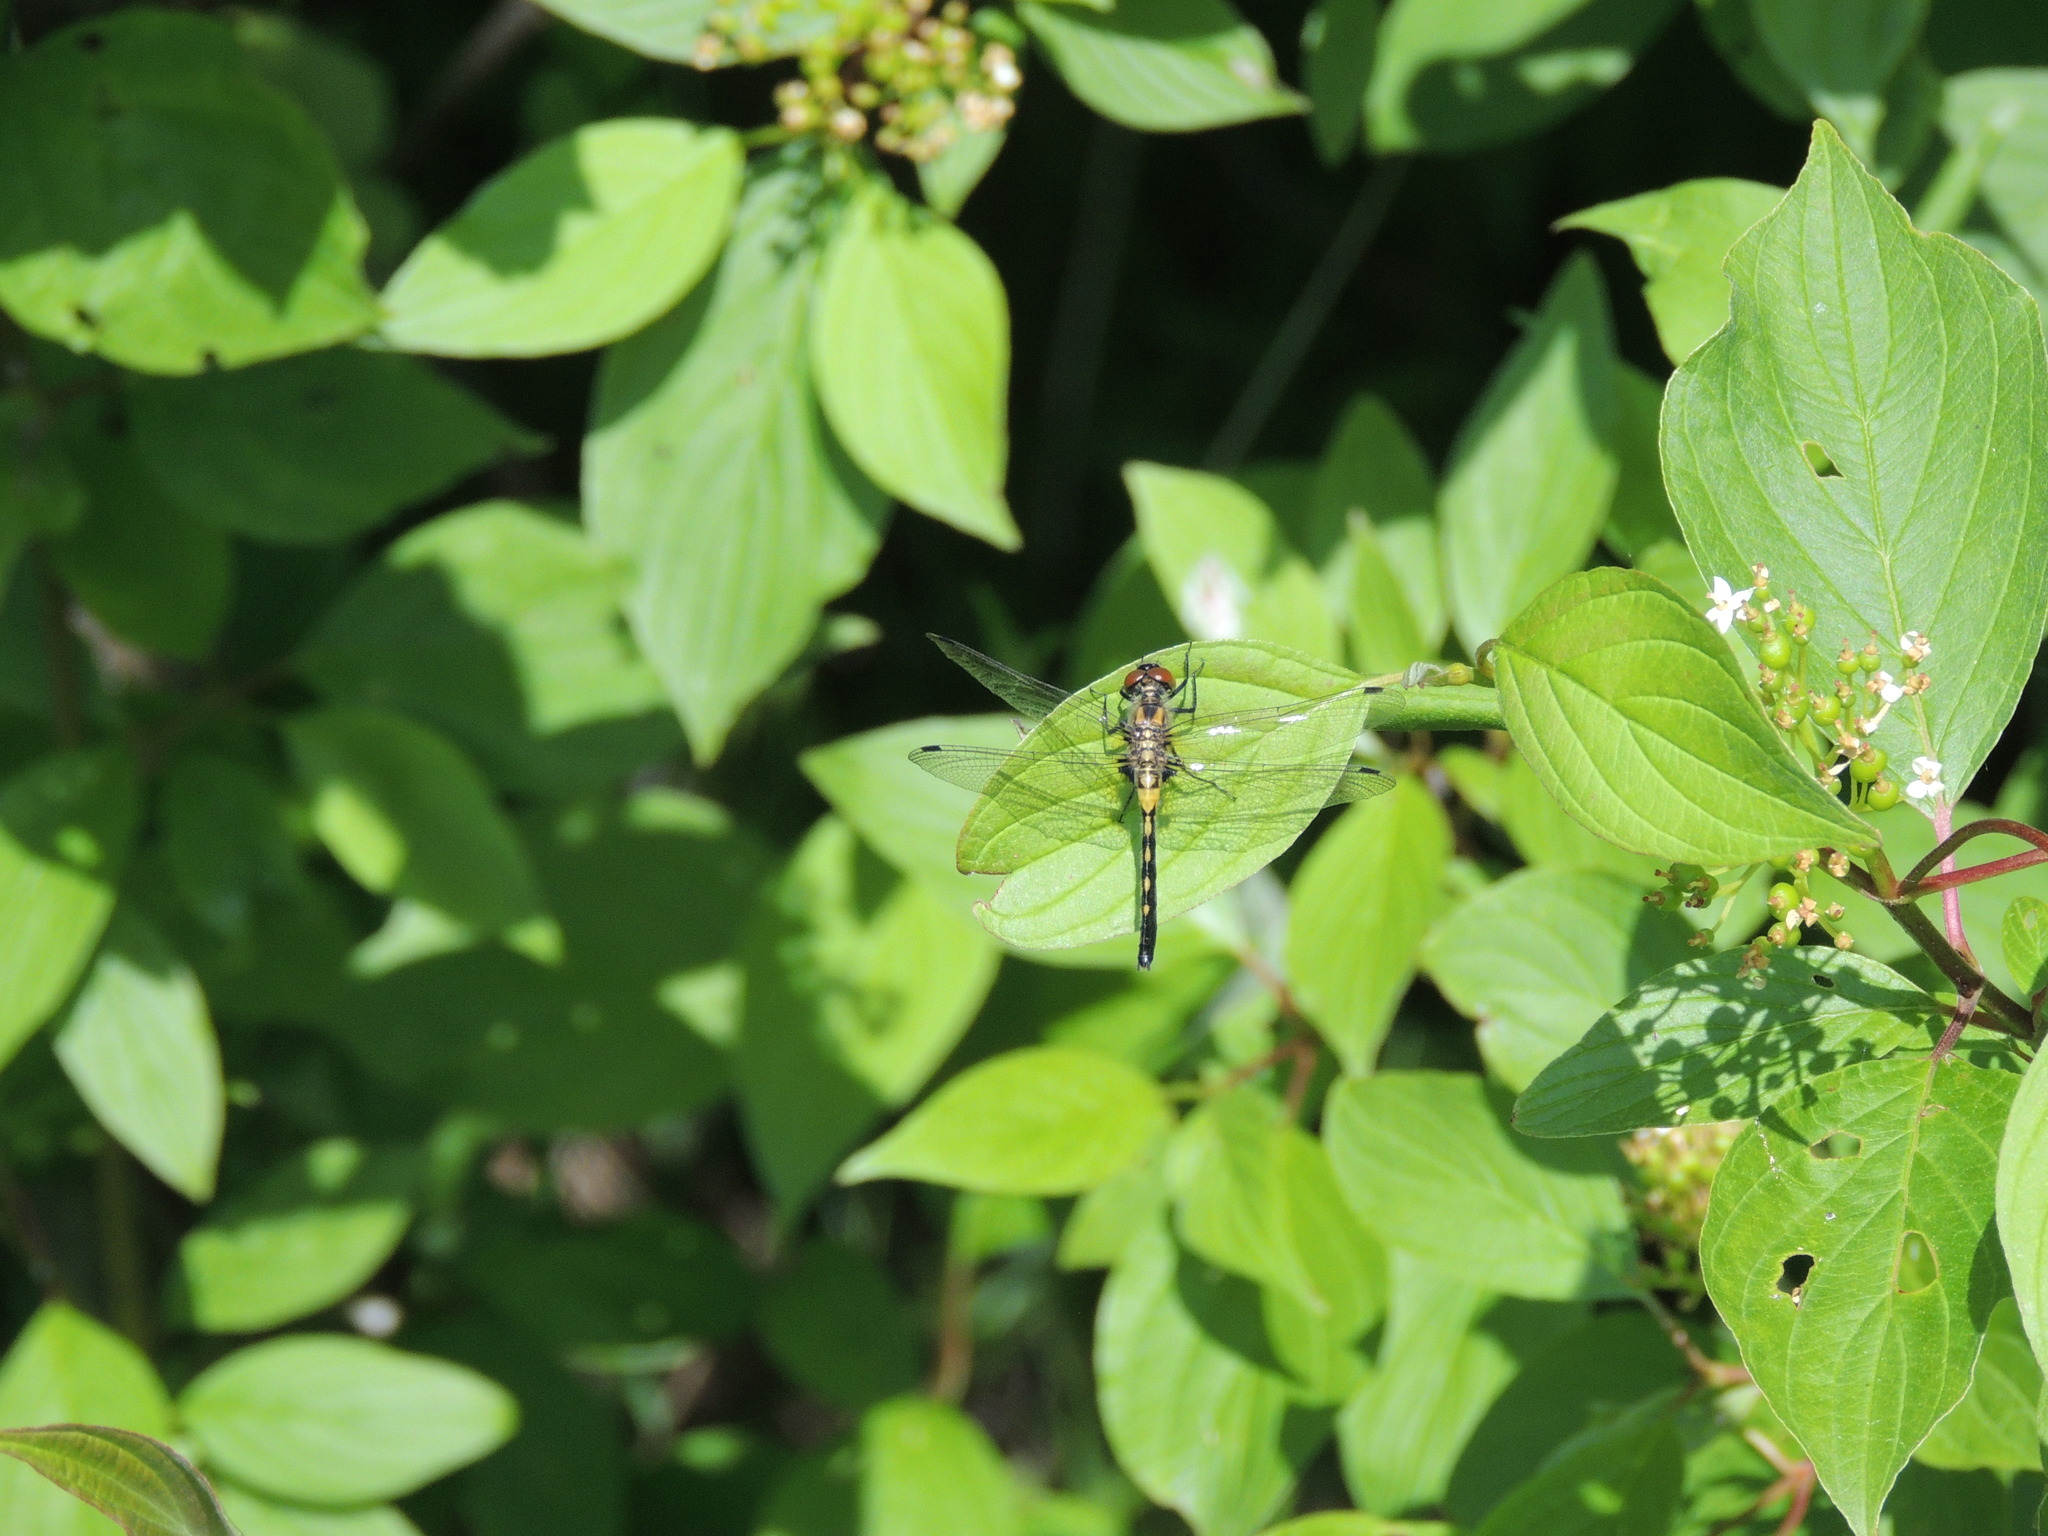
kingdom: Animalia
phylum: Arthropoda
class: Insecta
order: Odonata
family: Libellulidae
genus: Leucorrhinia
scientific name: Leucorrhinia proxima
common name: Belted whiteface
